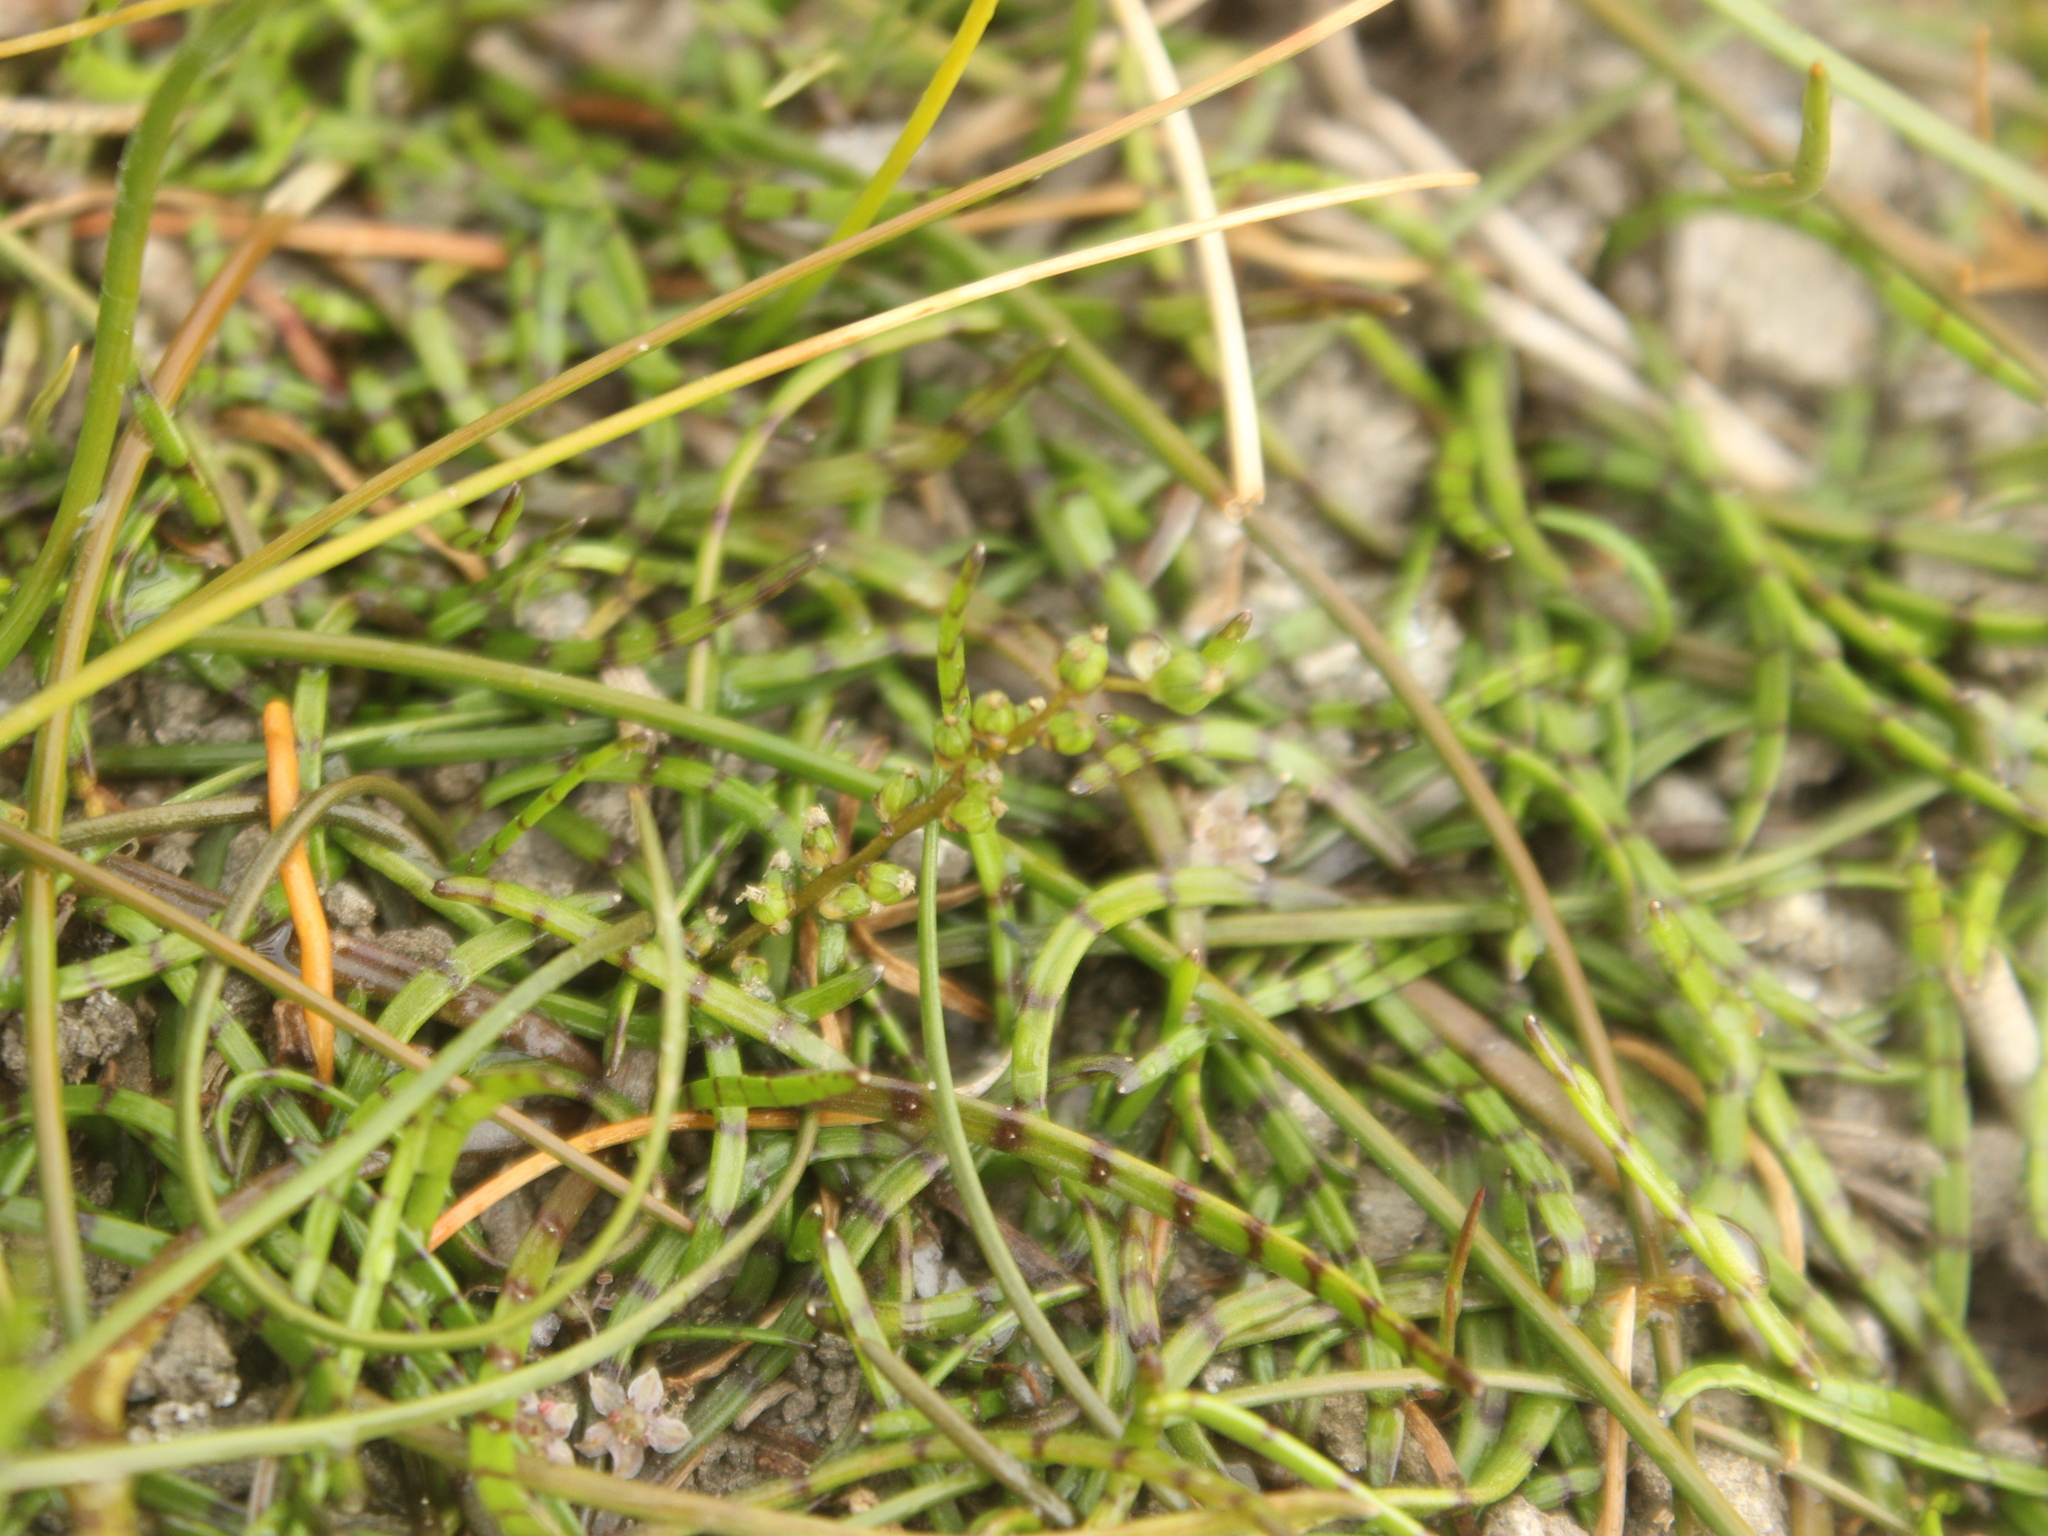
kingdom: Plantae
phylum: Tracheophyta
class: Liliopsida
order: Alismatales
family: Juncaginaceae
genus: Triglochin
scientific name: Triglochin striata
